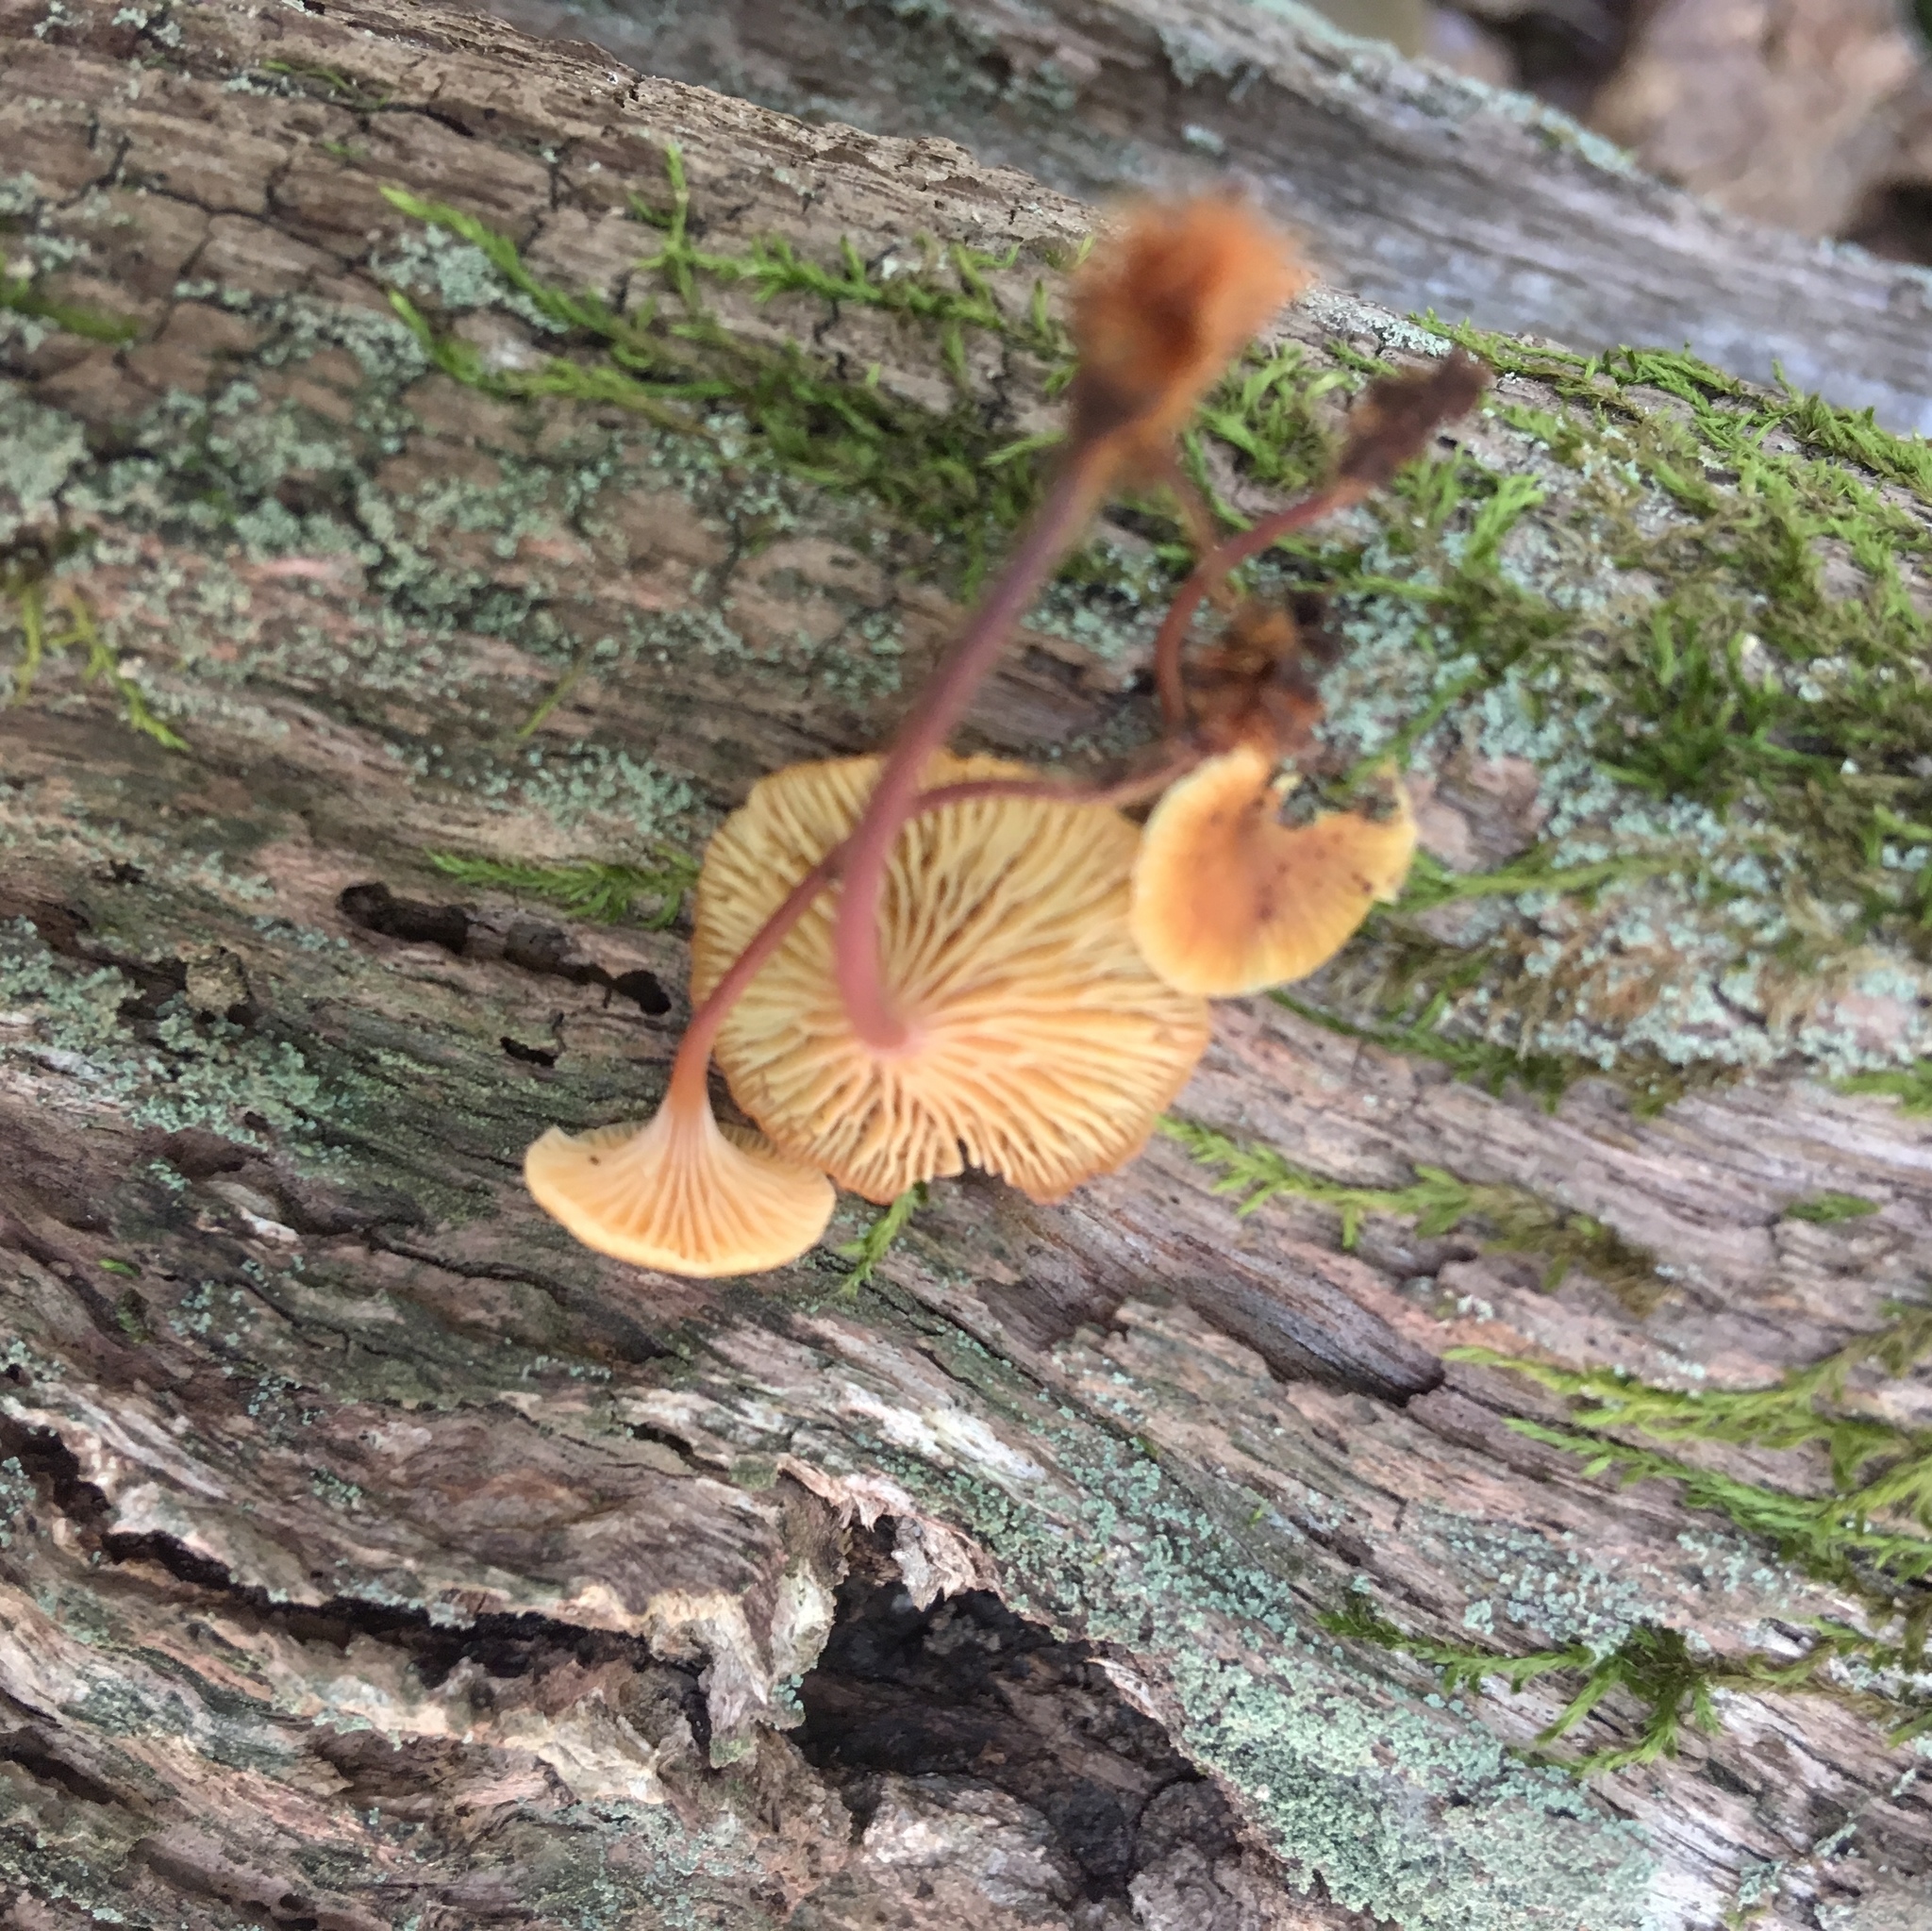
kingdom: Fungi
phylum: Basidiomycota
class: Agaricomycetes
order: Agaricales
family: Mycenaceae
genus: Xeromphalina
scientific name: Xeromphalina kauffmanii
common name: Cross-veined troop mushroom
